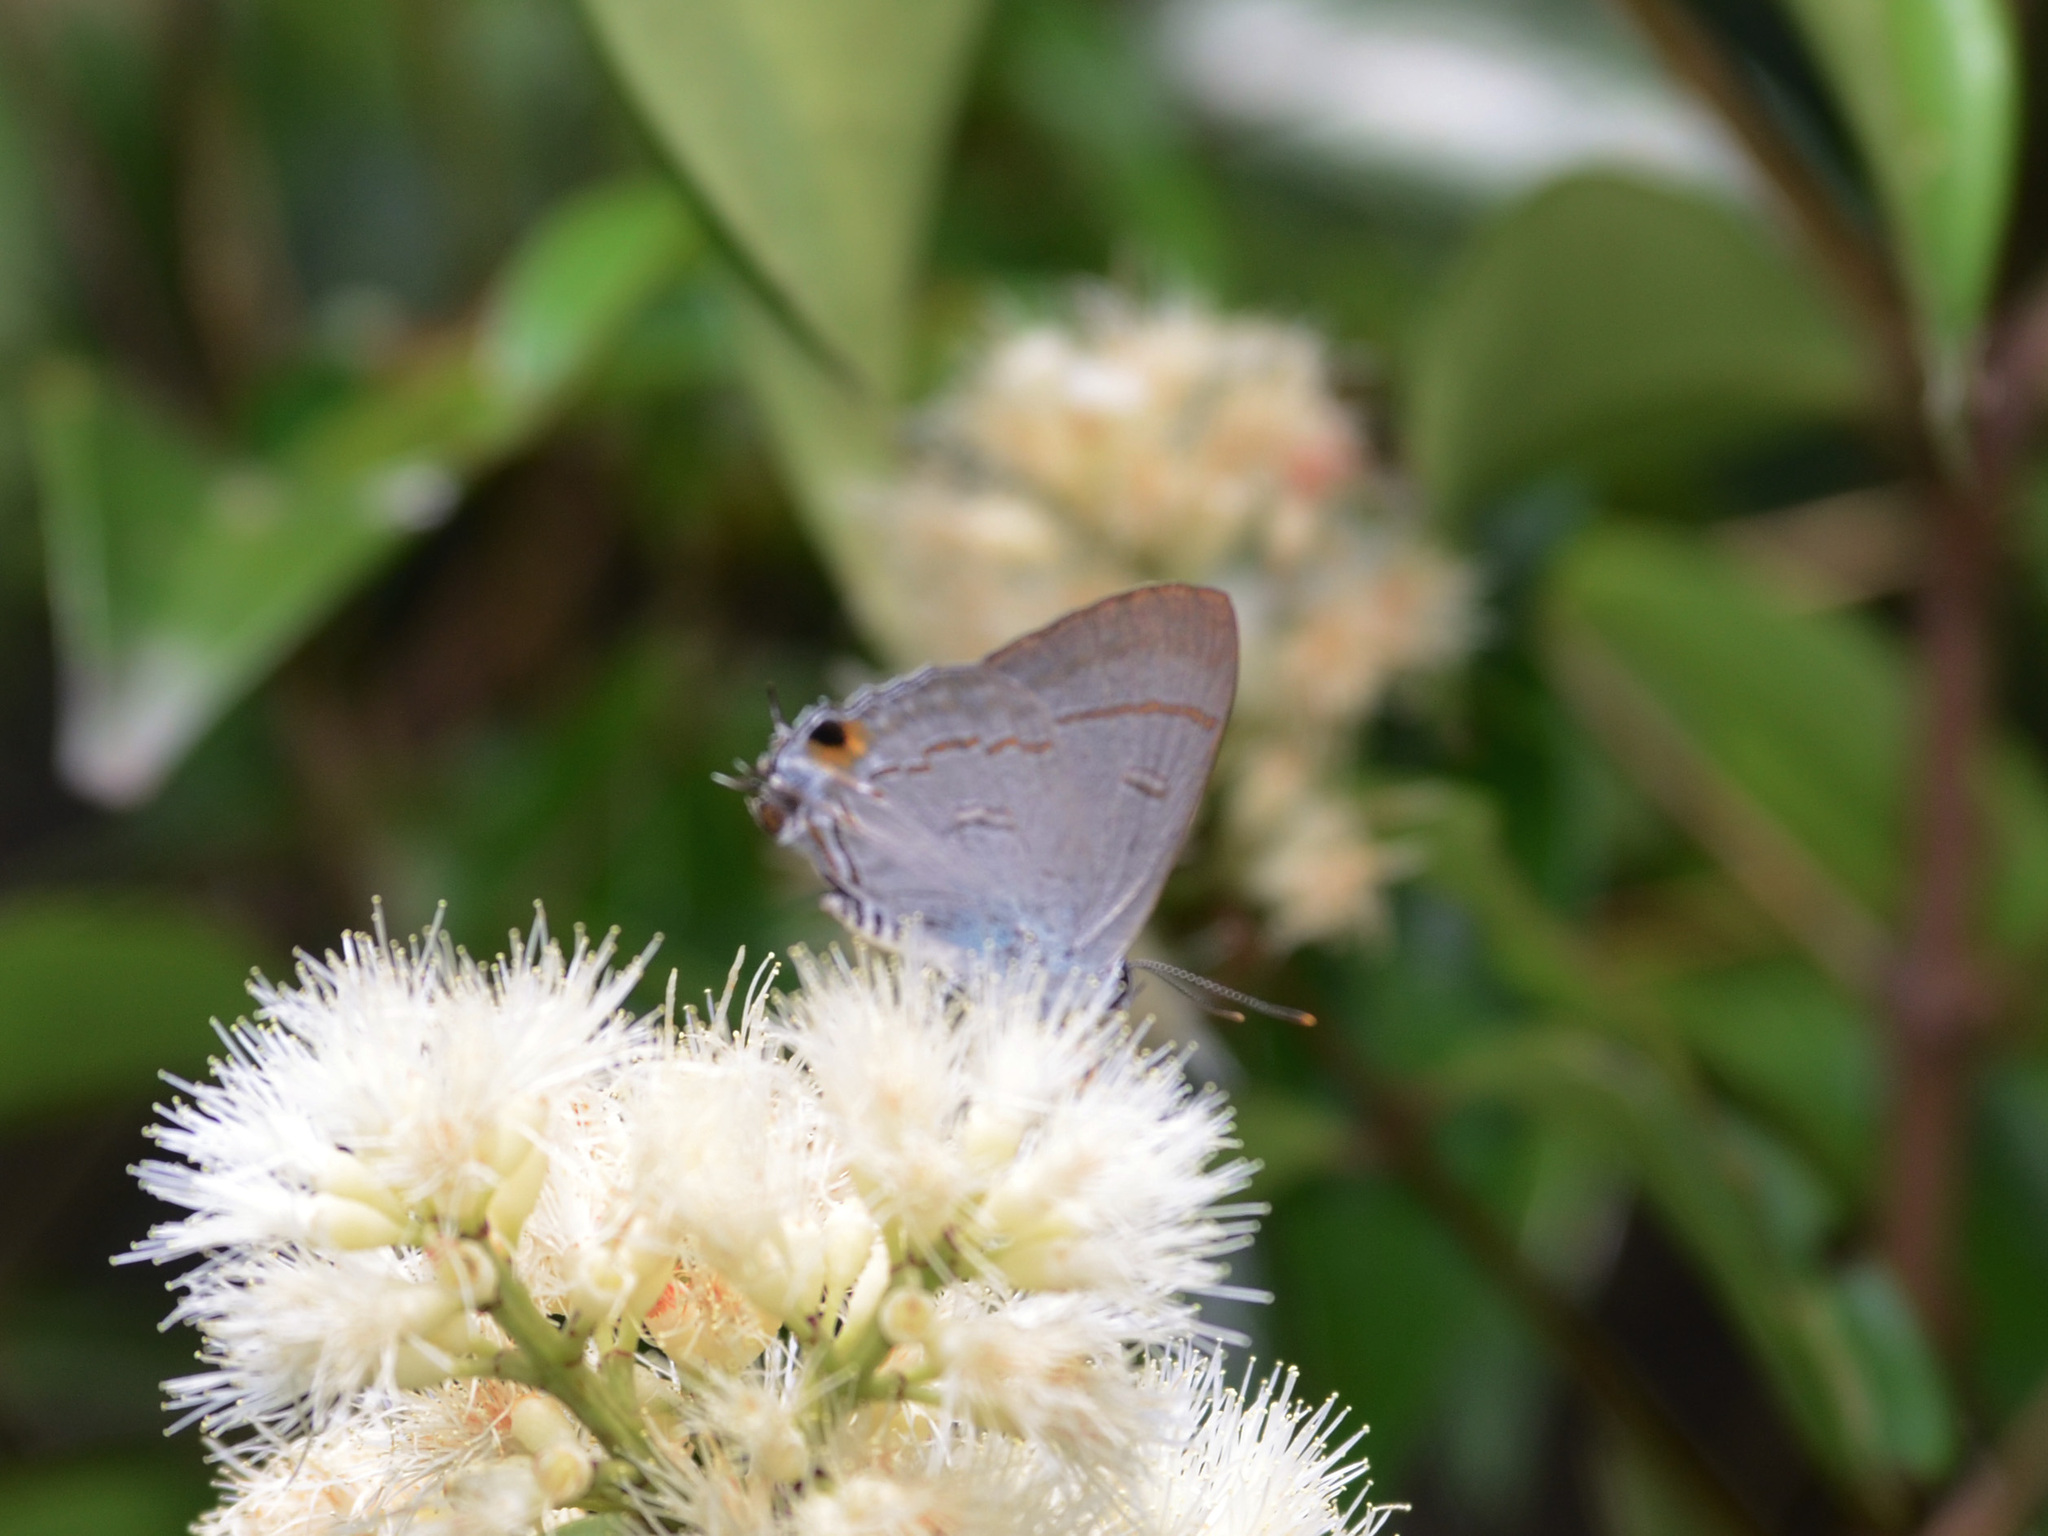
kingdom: Animalia
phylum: Arthropoda
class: Insecta
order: Lepidoptera
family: Lycaenidae
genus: Hypolycaena
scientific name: Hypolycaena erylus
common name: Common tit
